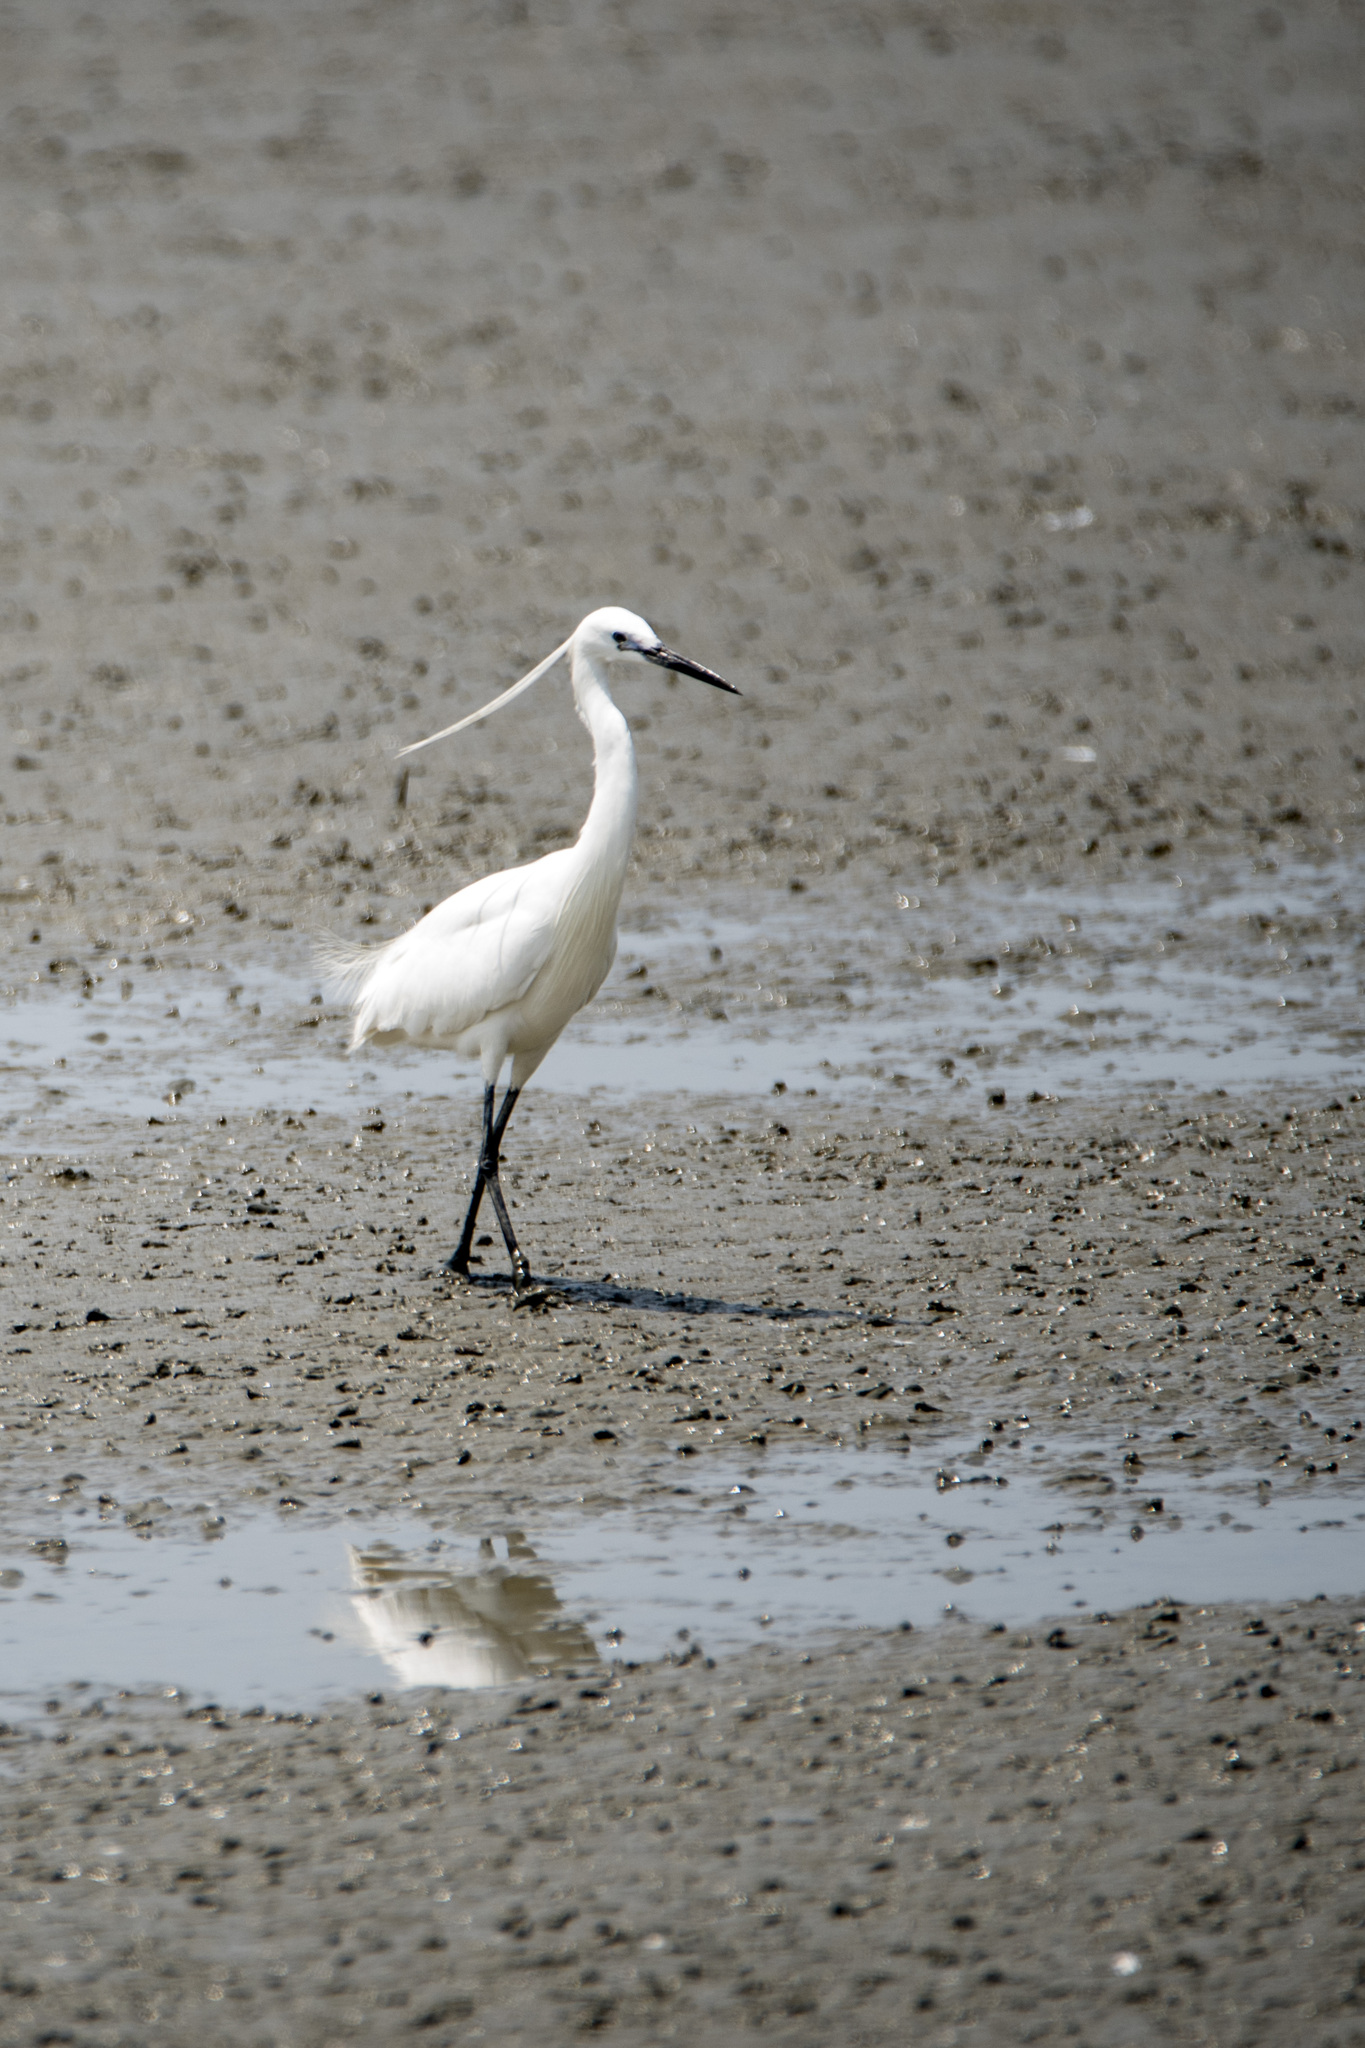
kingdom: Animalia
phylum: Chordata
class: Aves
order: Pelecaniformes
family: Ardeidae
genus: Egretta
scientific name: Egretta garzetta
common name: Little egret
